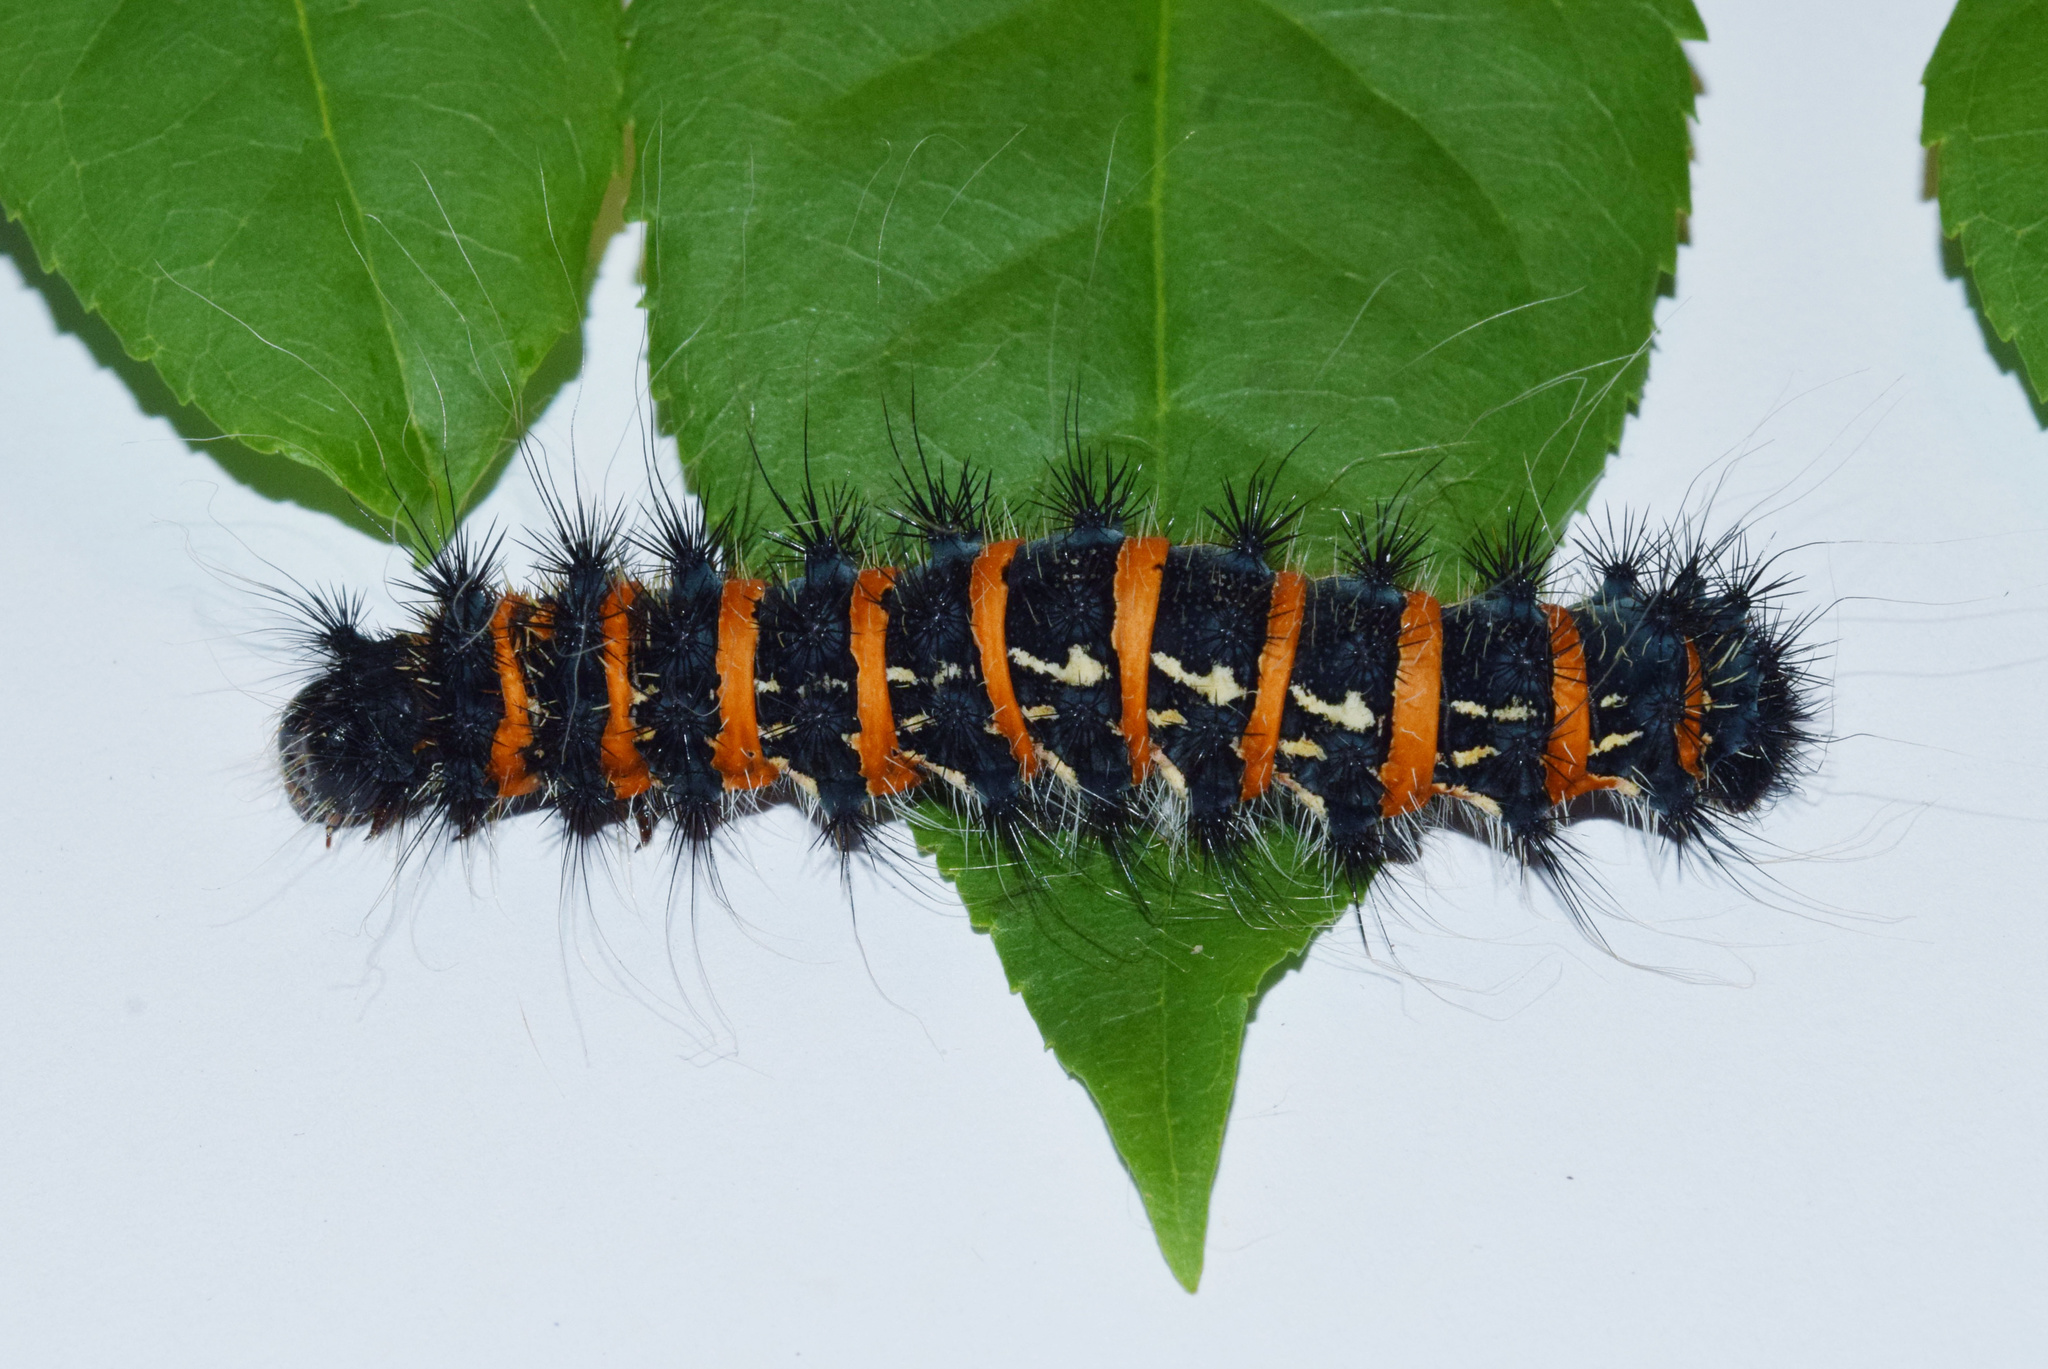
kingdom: Animalia
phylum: Arthropoda
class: Insecta
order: Lepidoptera
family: Saturniidae
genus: Holocerina
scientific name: Holocerina smilax
